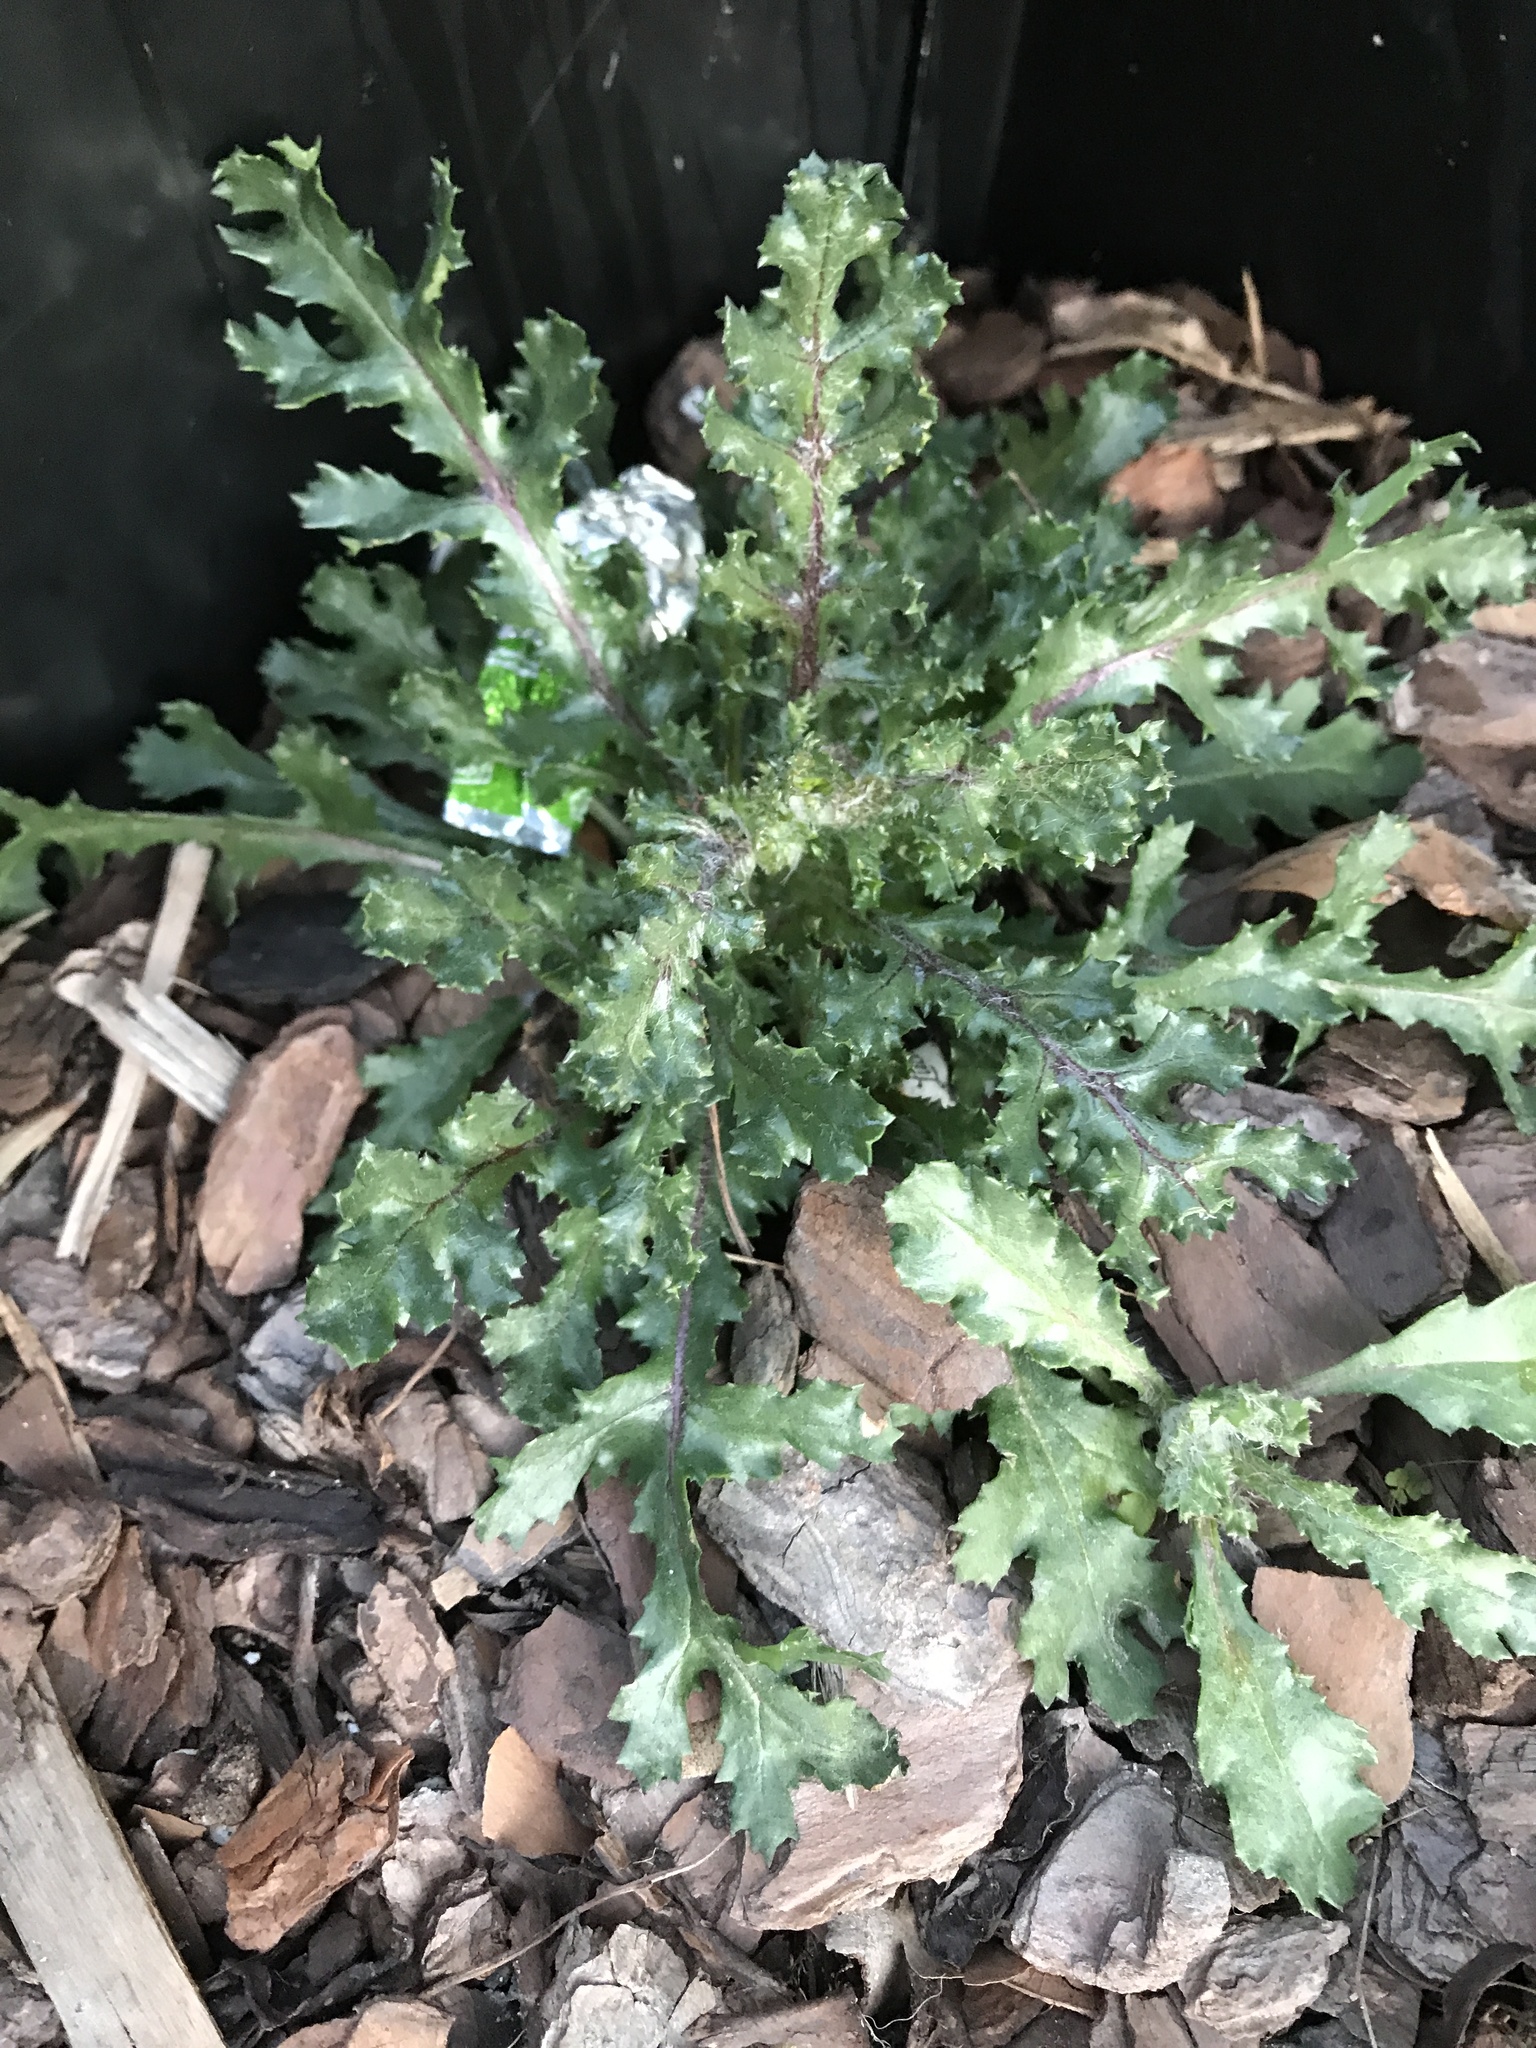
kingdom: Plantae
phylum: Tracheophyta
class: Magnoliopsida
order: Asterales
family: Asteraceae
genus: Senecio
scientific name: Senecio vulgaris
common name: Old-man-in-the-spring
